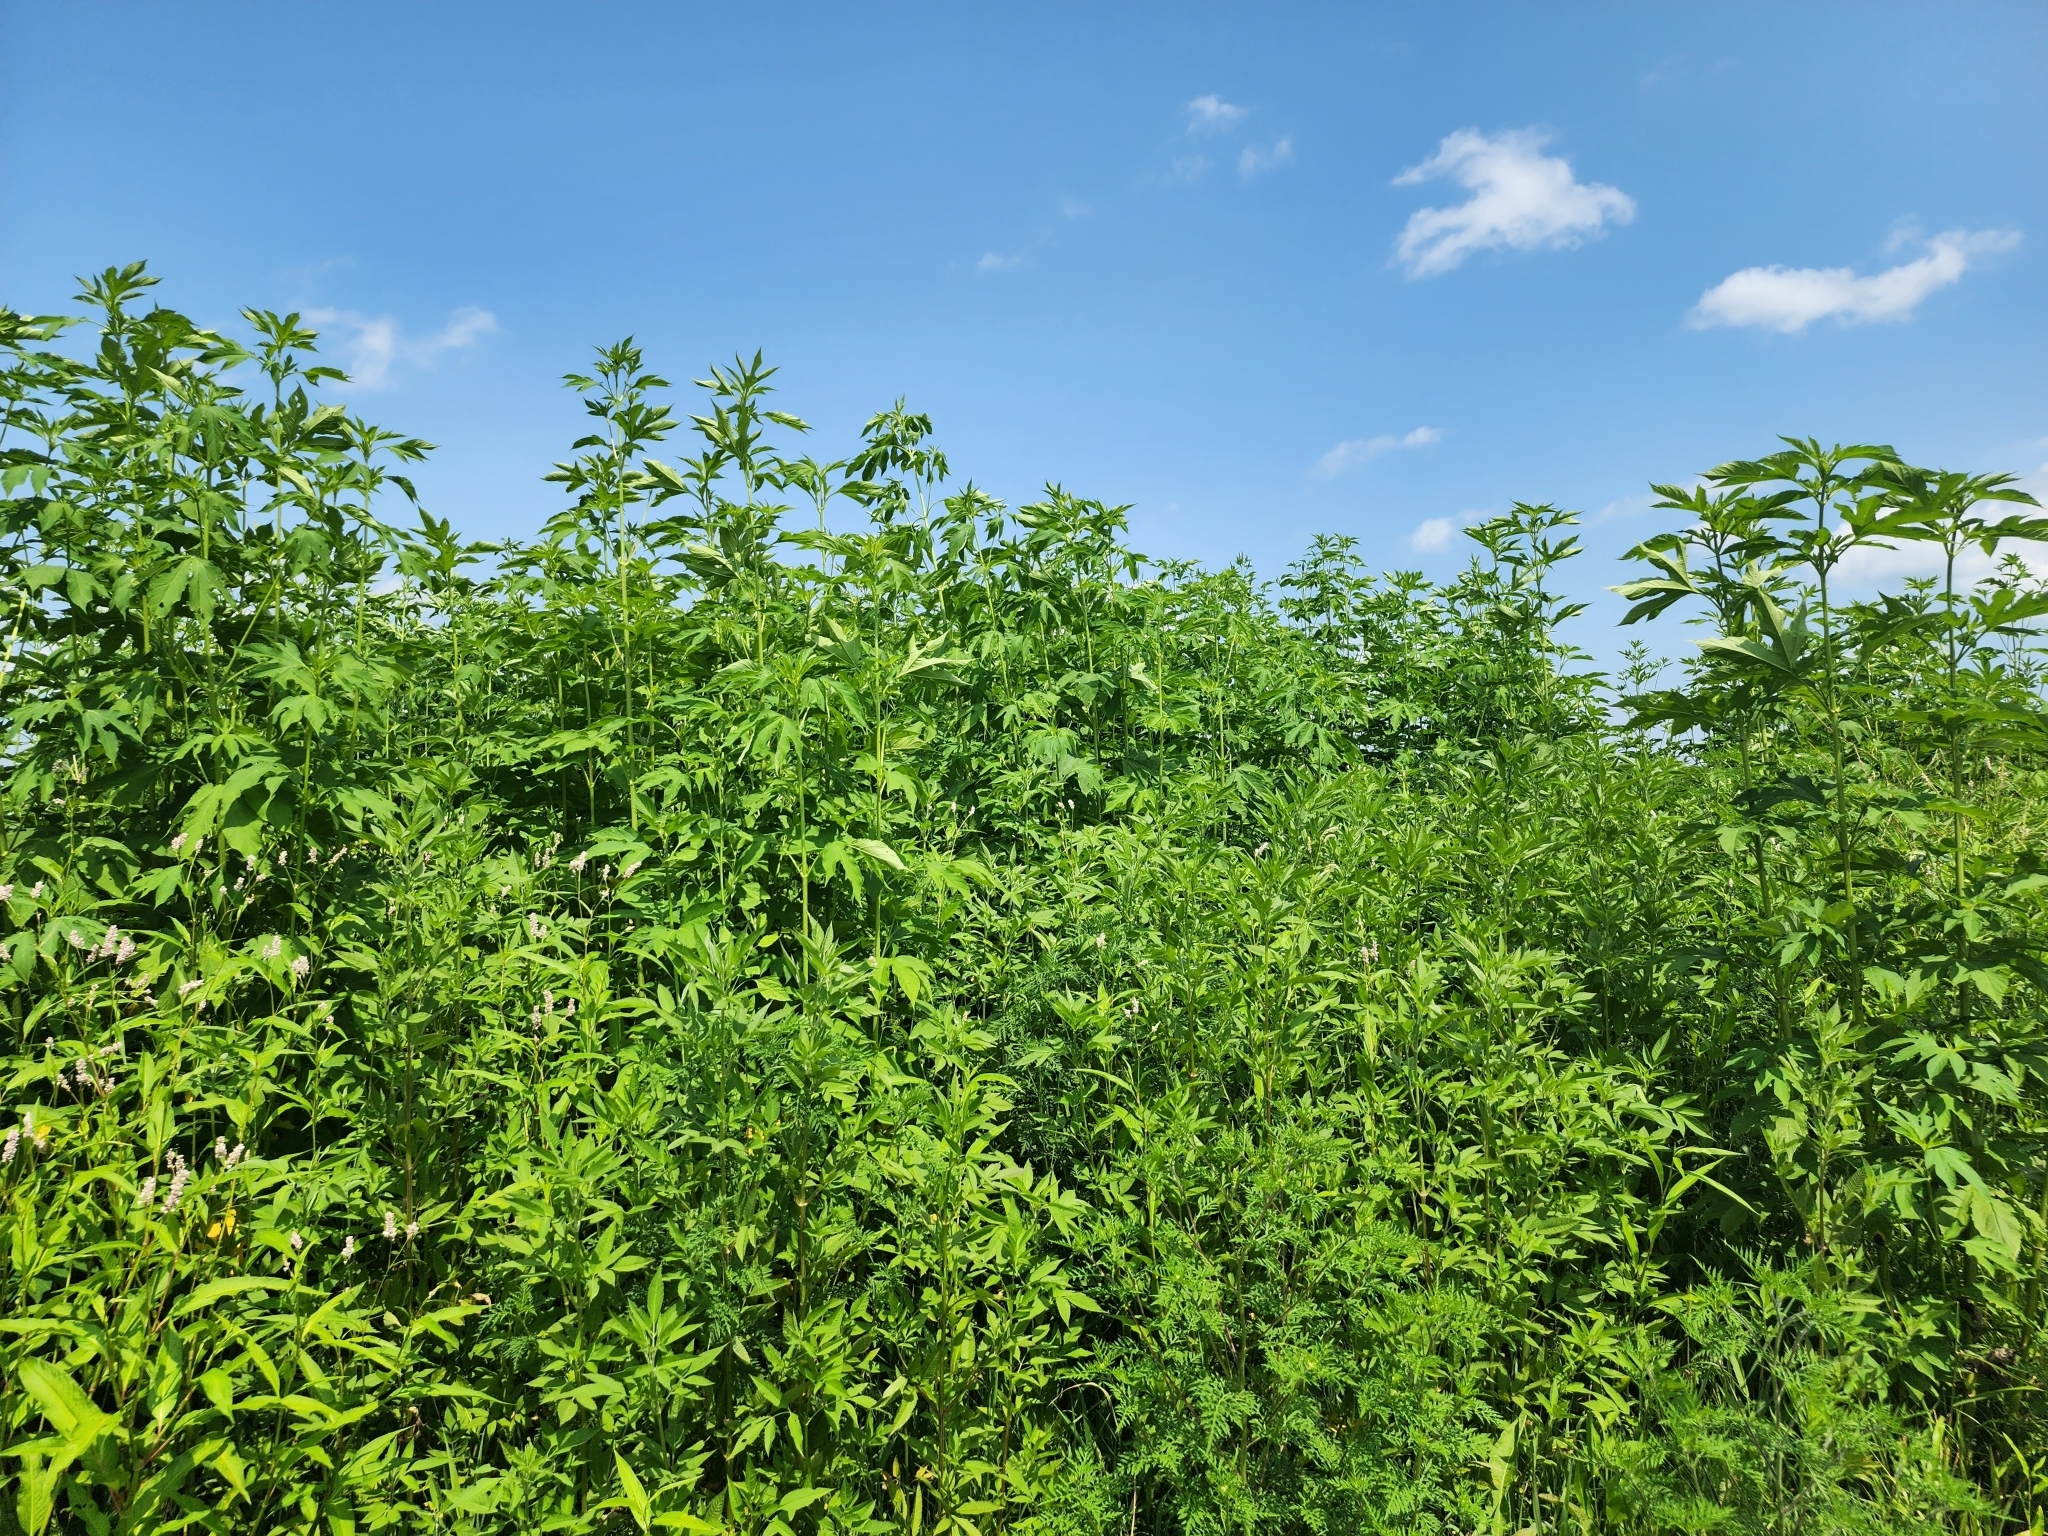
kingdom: Plantae
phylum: Tracheophyta
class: Magnoliopsida
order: Asterales
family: Asteraceae
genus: Ambrosia
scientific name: Ambrosia trifida
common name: Giant ragweed
